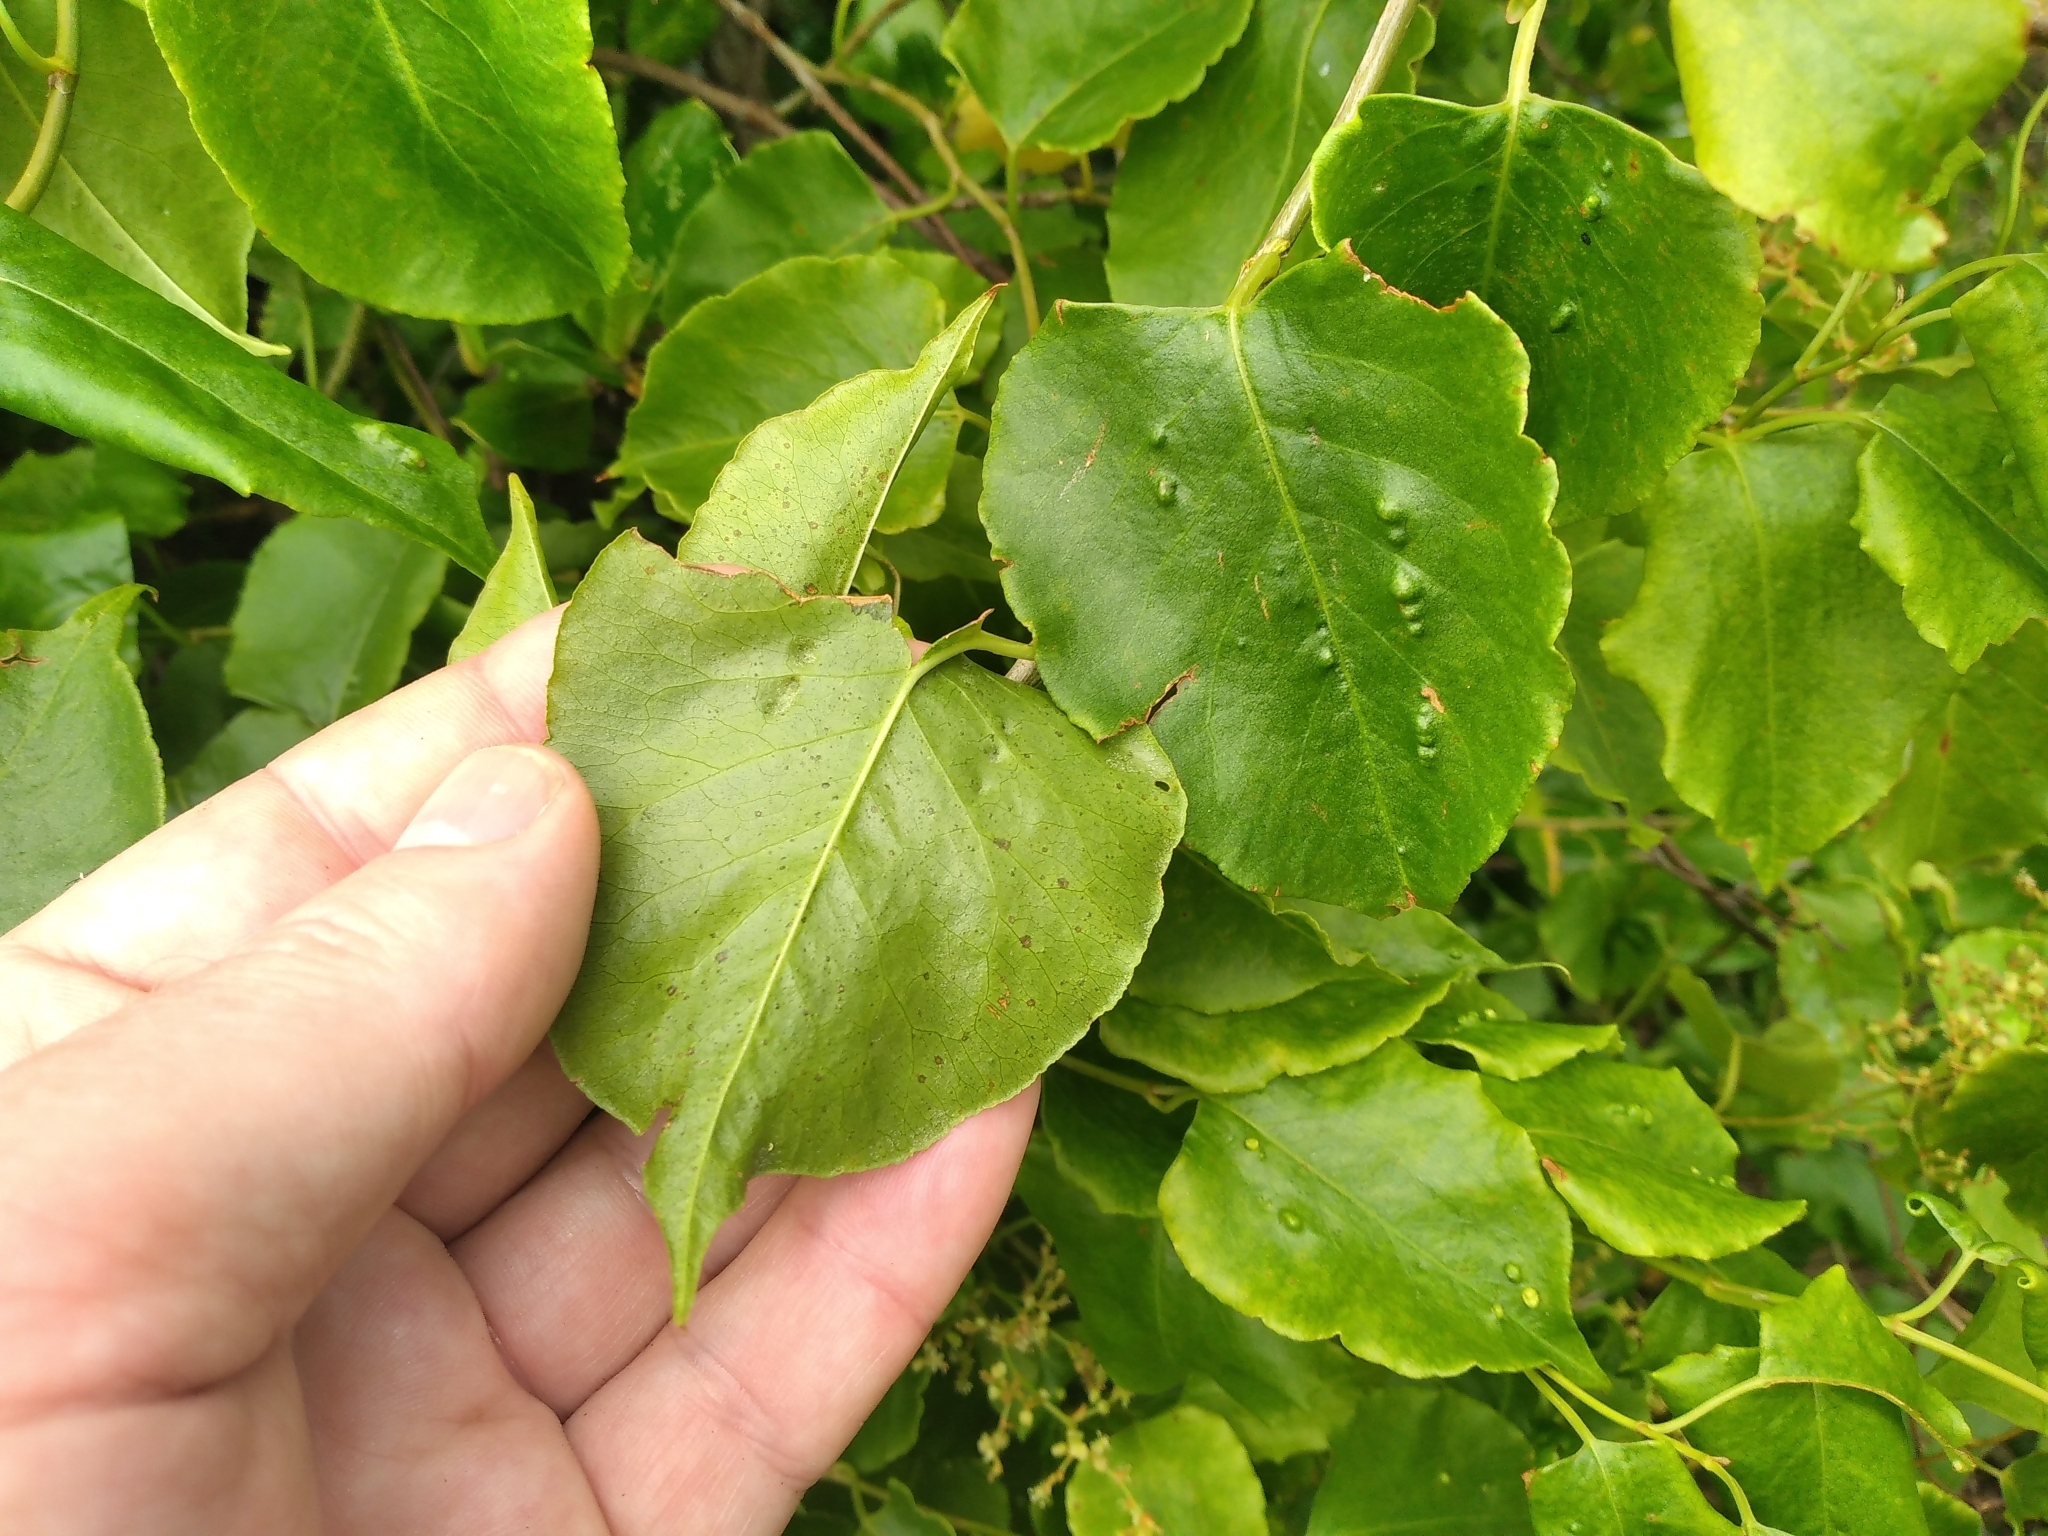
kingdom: Plantae
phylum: Tracheophyta
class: Magnoliopsida
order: Caryophyllales
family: Polygonaceae
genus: Muehlenbeckia
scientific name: Muehlenbeckia australis
